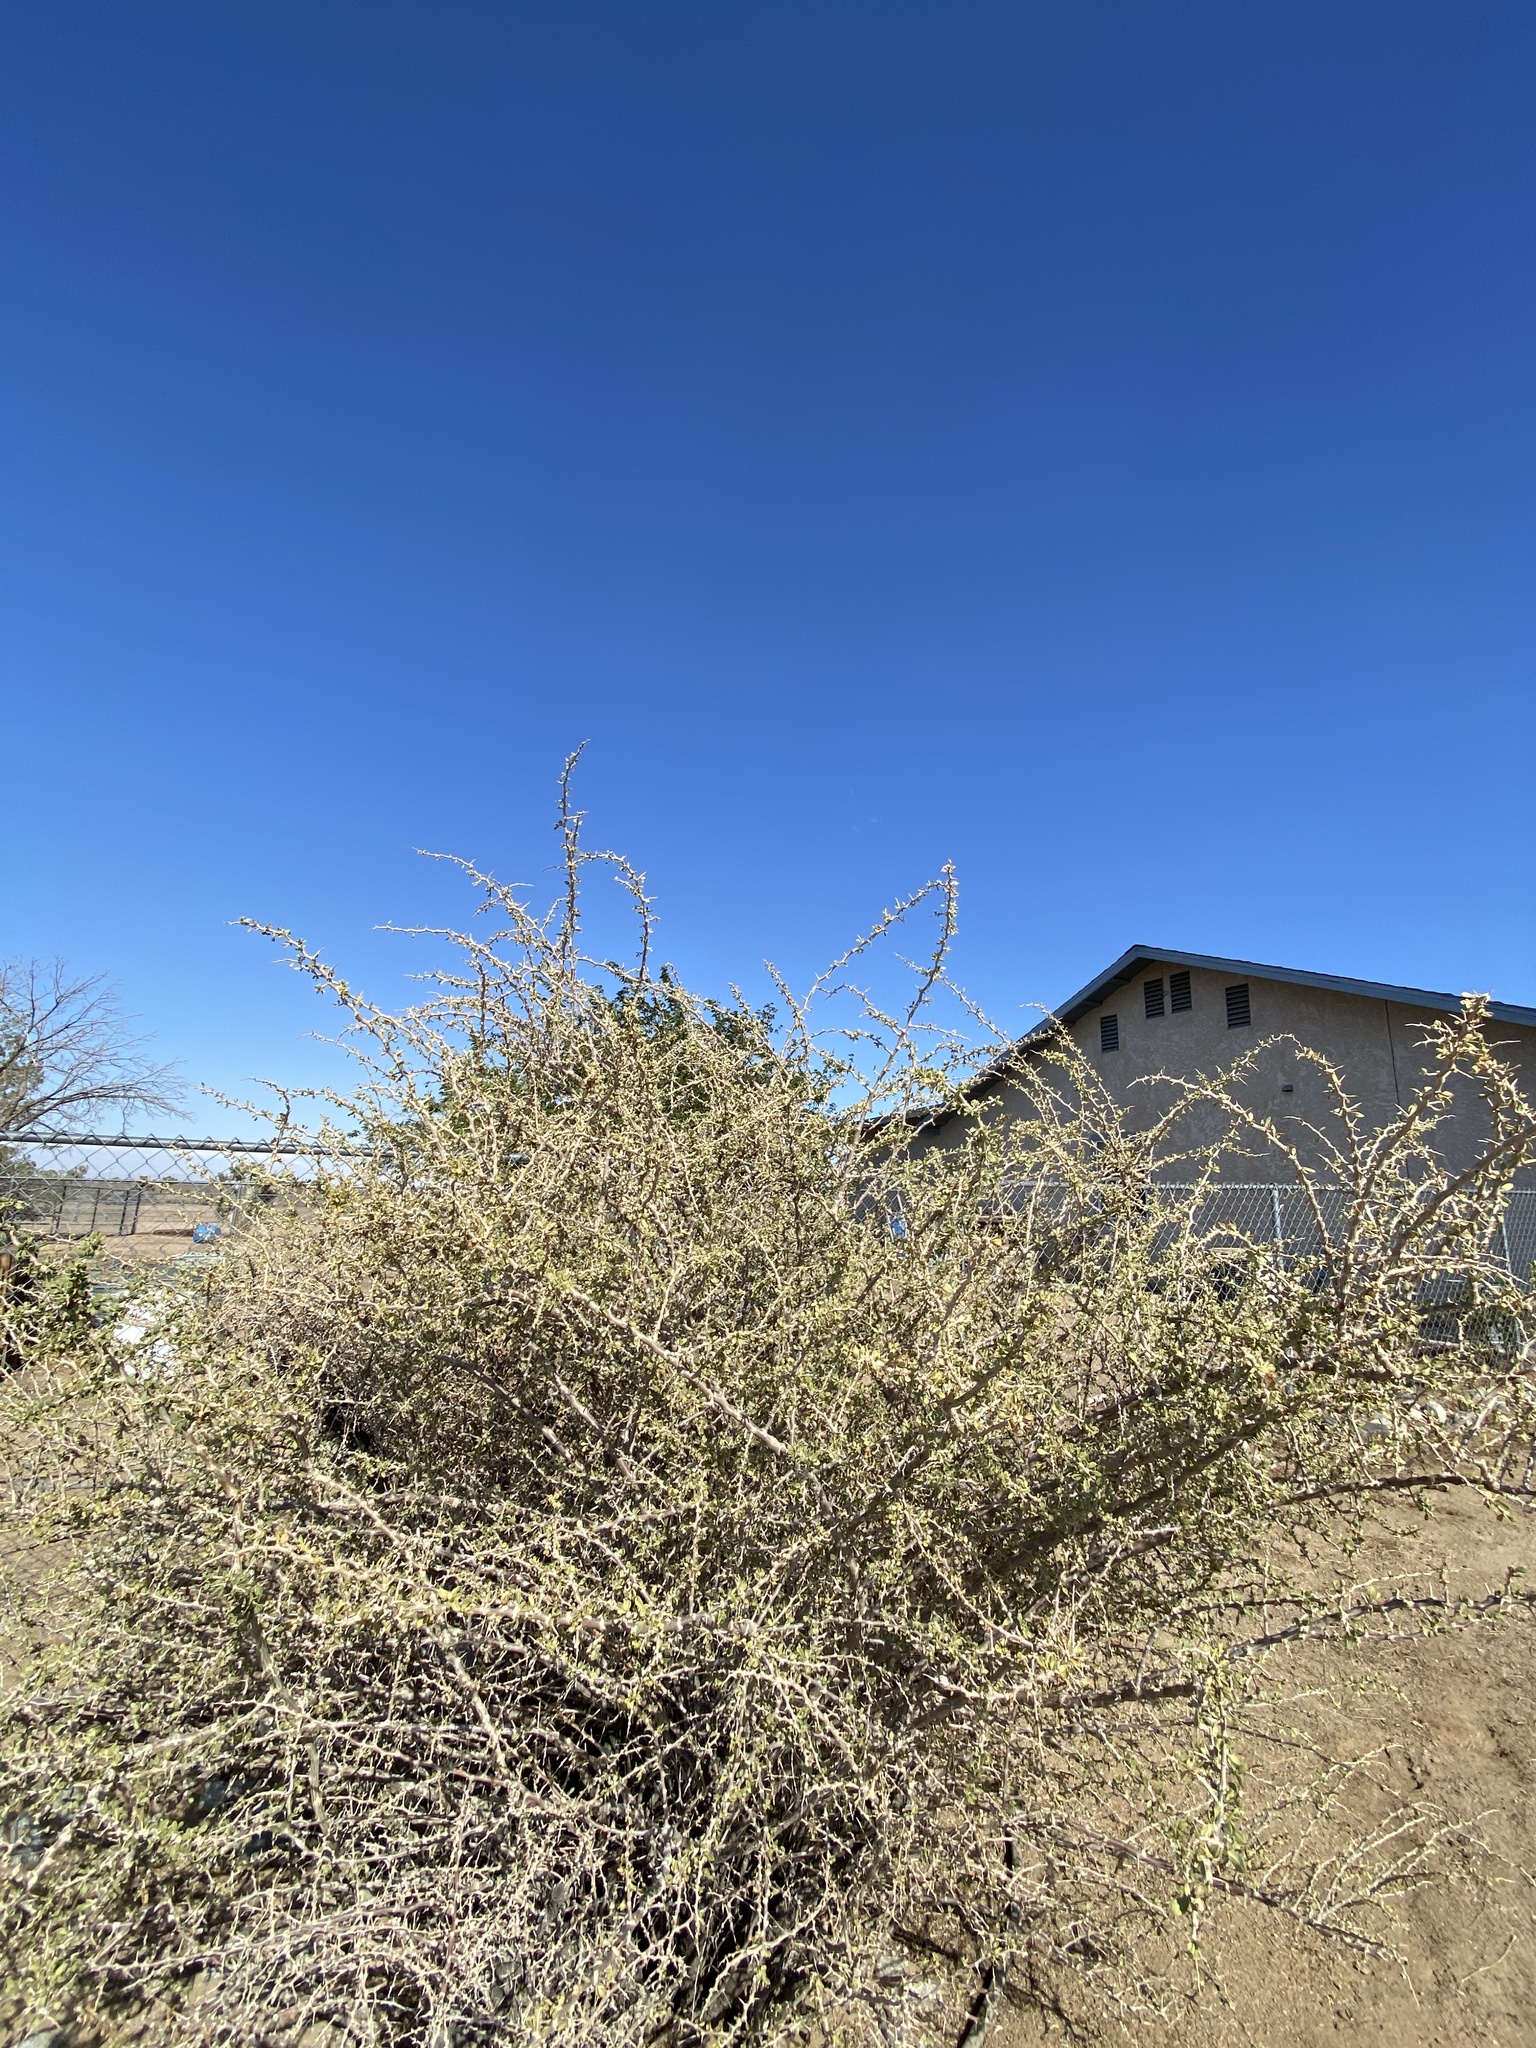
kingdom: Plantae
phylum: Tracheophyta
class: Magnoliopsida
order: Solanales
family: Solanaceae
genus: Lycium
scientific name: Lycium cooperi
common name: Peachthorn
